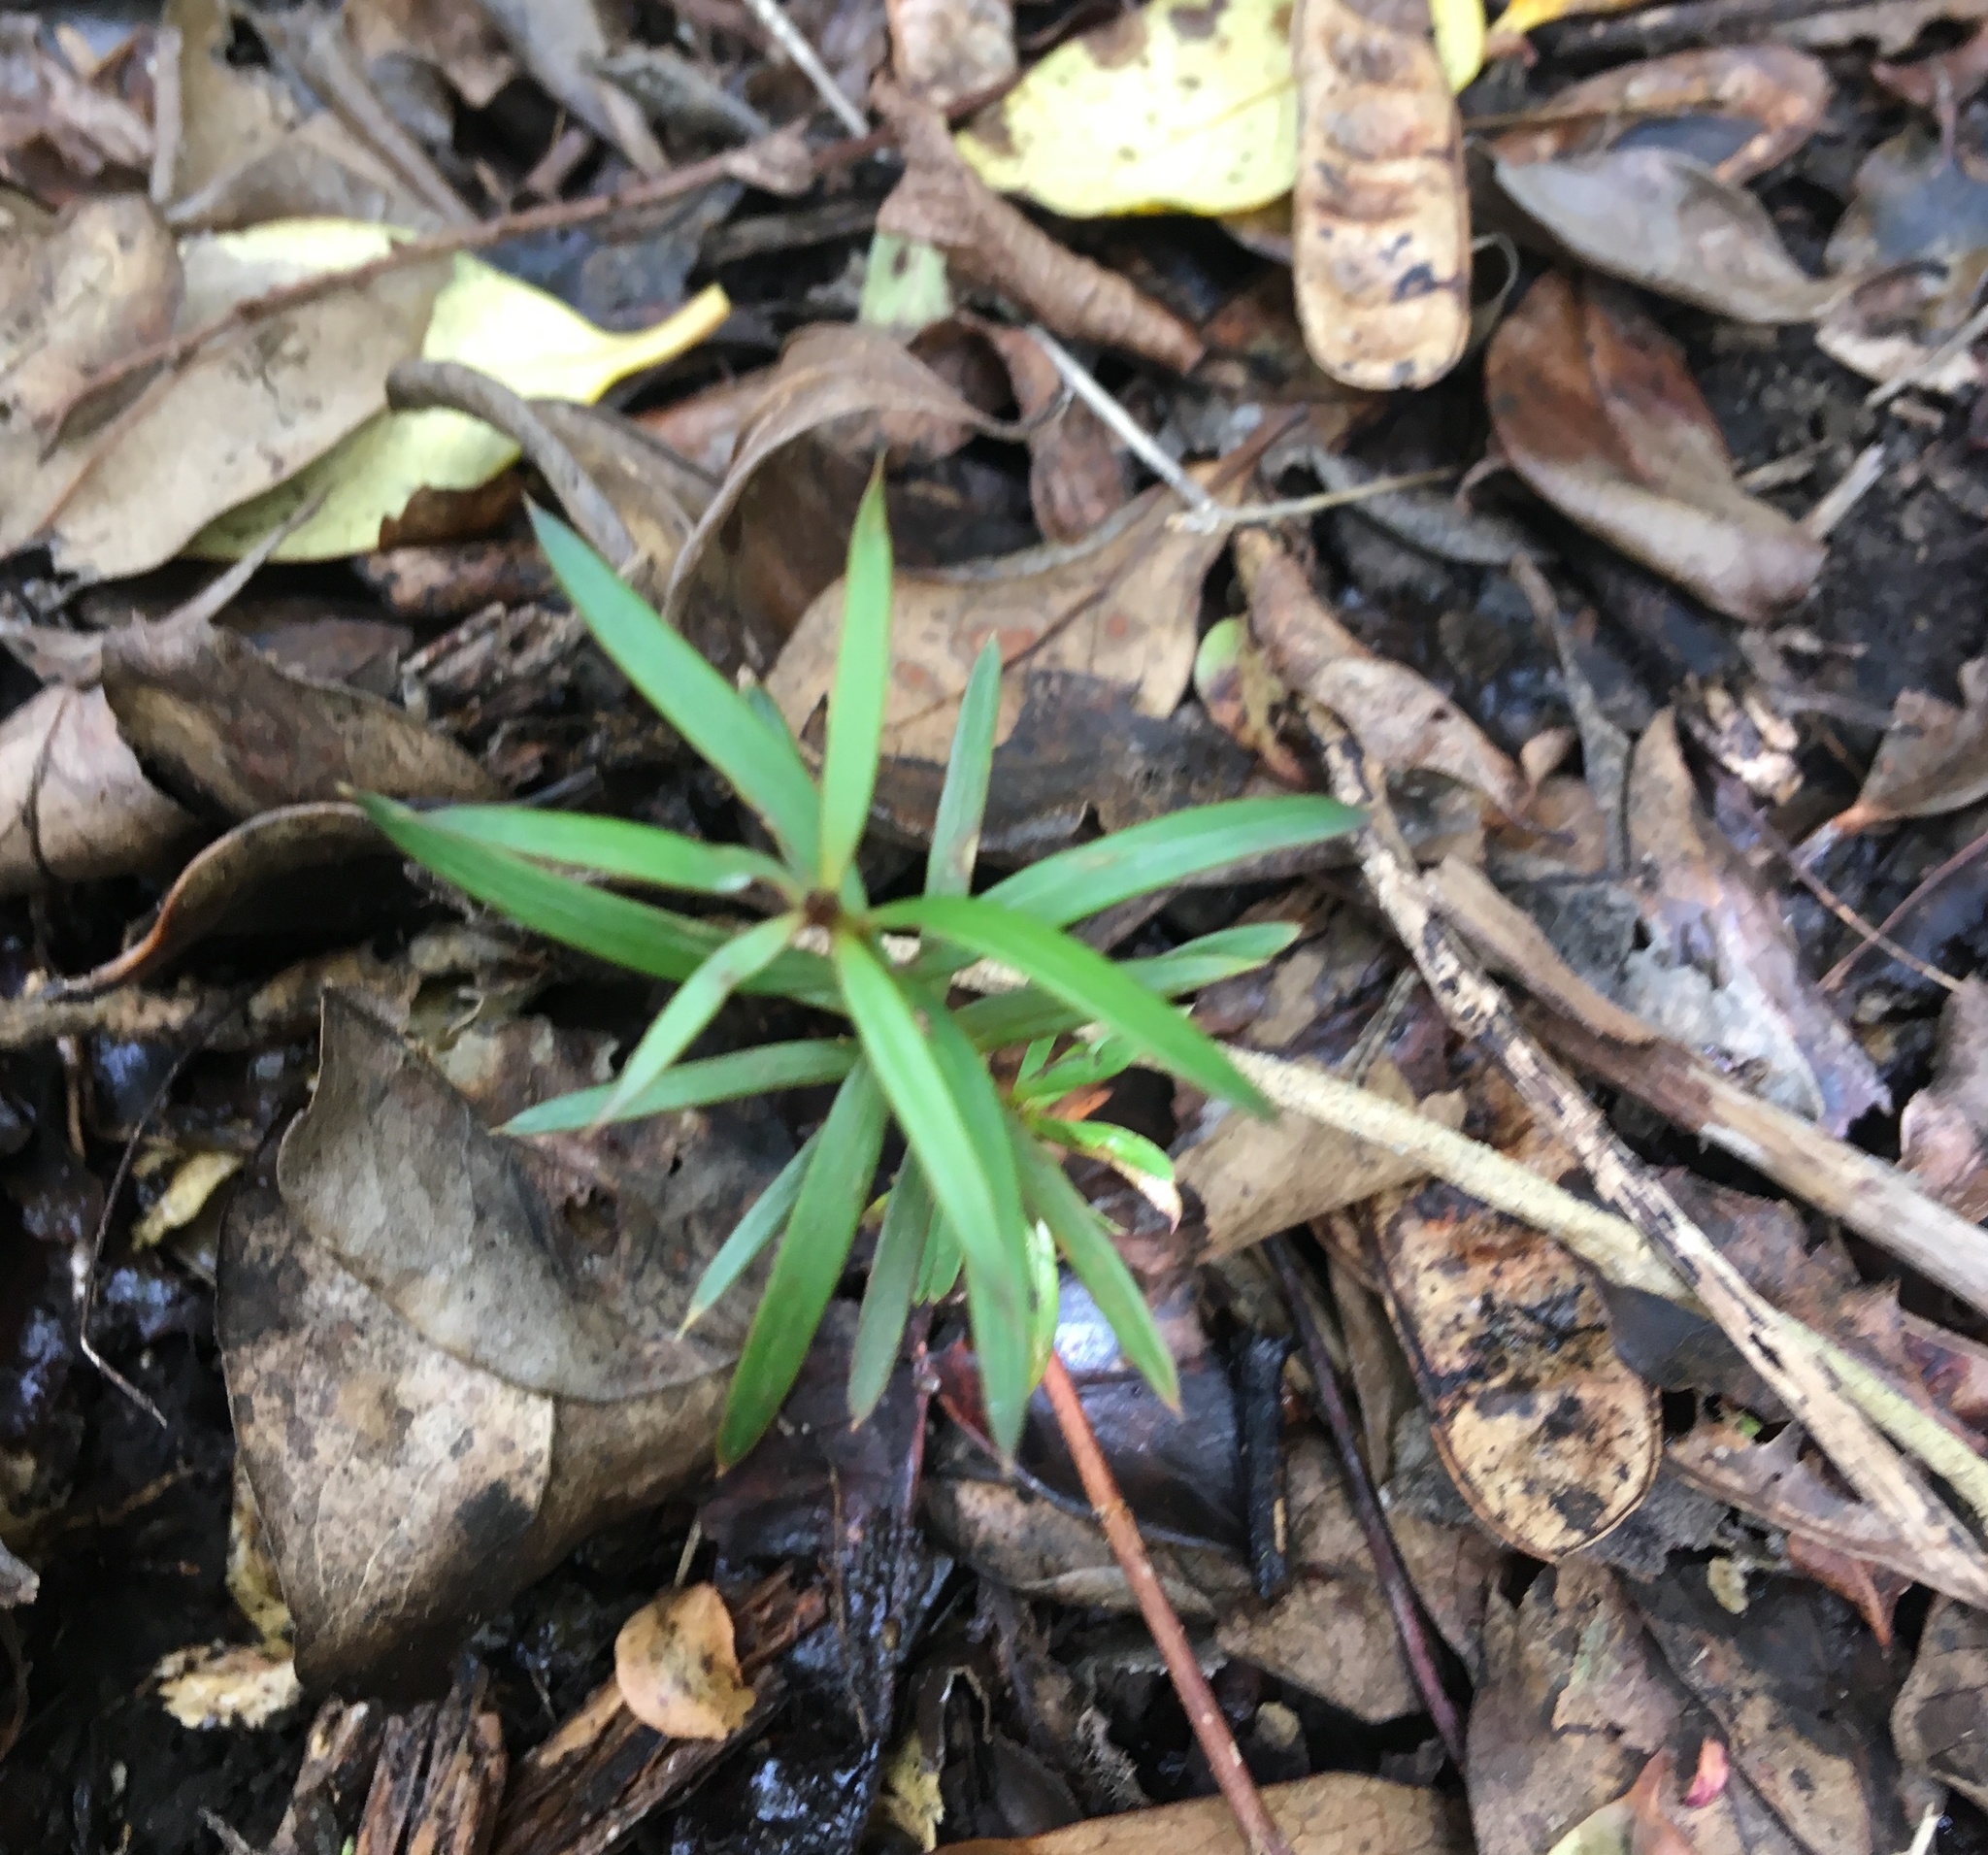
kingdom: Plantae
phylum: Tracheophyta
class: Pinopsida
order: Pinales
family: Podocarpaceae
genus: Podocarpus
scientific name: Podocarpus totara
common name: Totara
